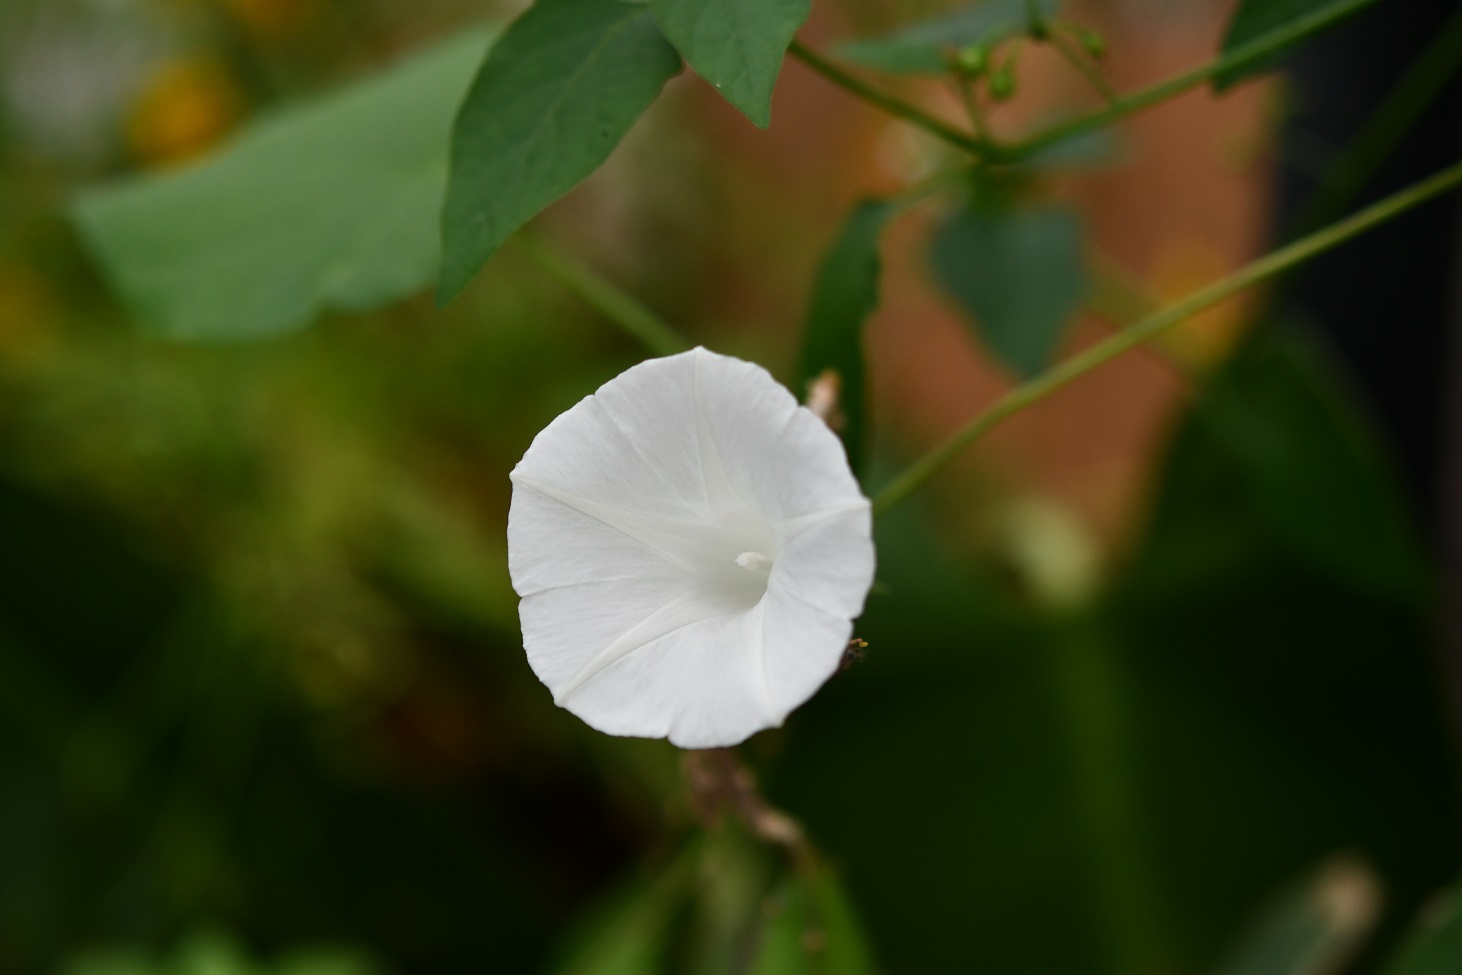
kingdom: Plantae
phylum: Tracheophyta
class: Magnoliopsida
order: Solanales
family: Convolvulaceae
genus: Ipomoea
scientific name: Ipomoea purpurea
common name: Common morning-glory
